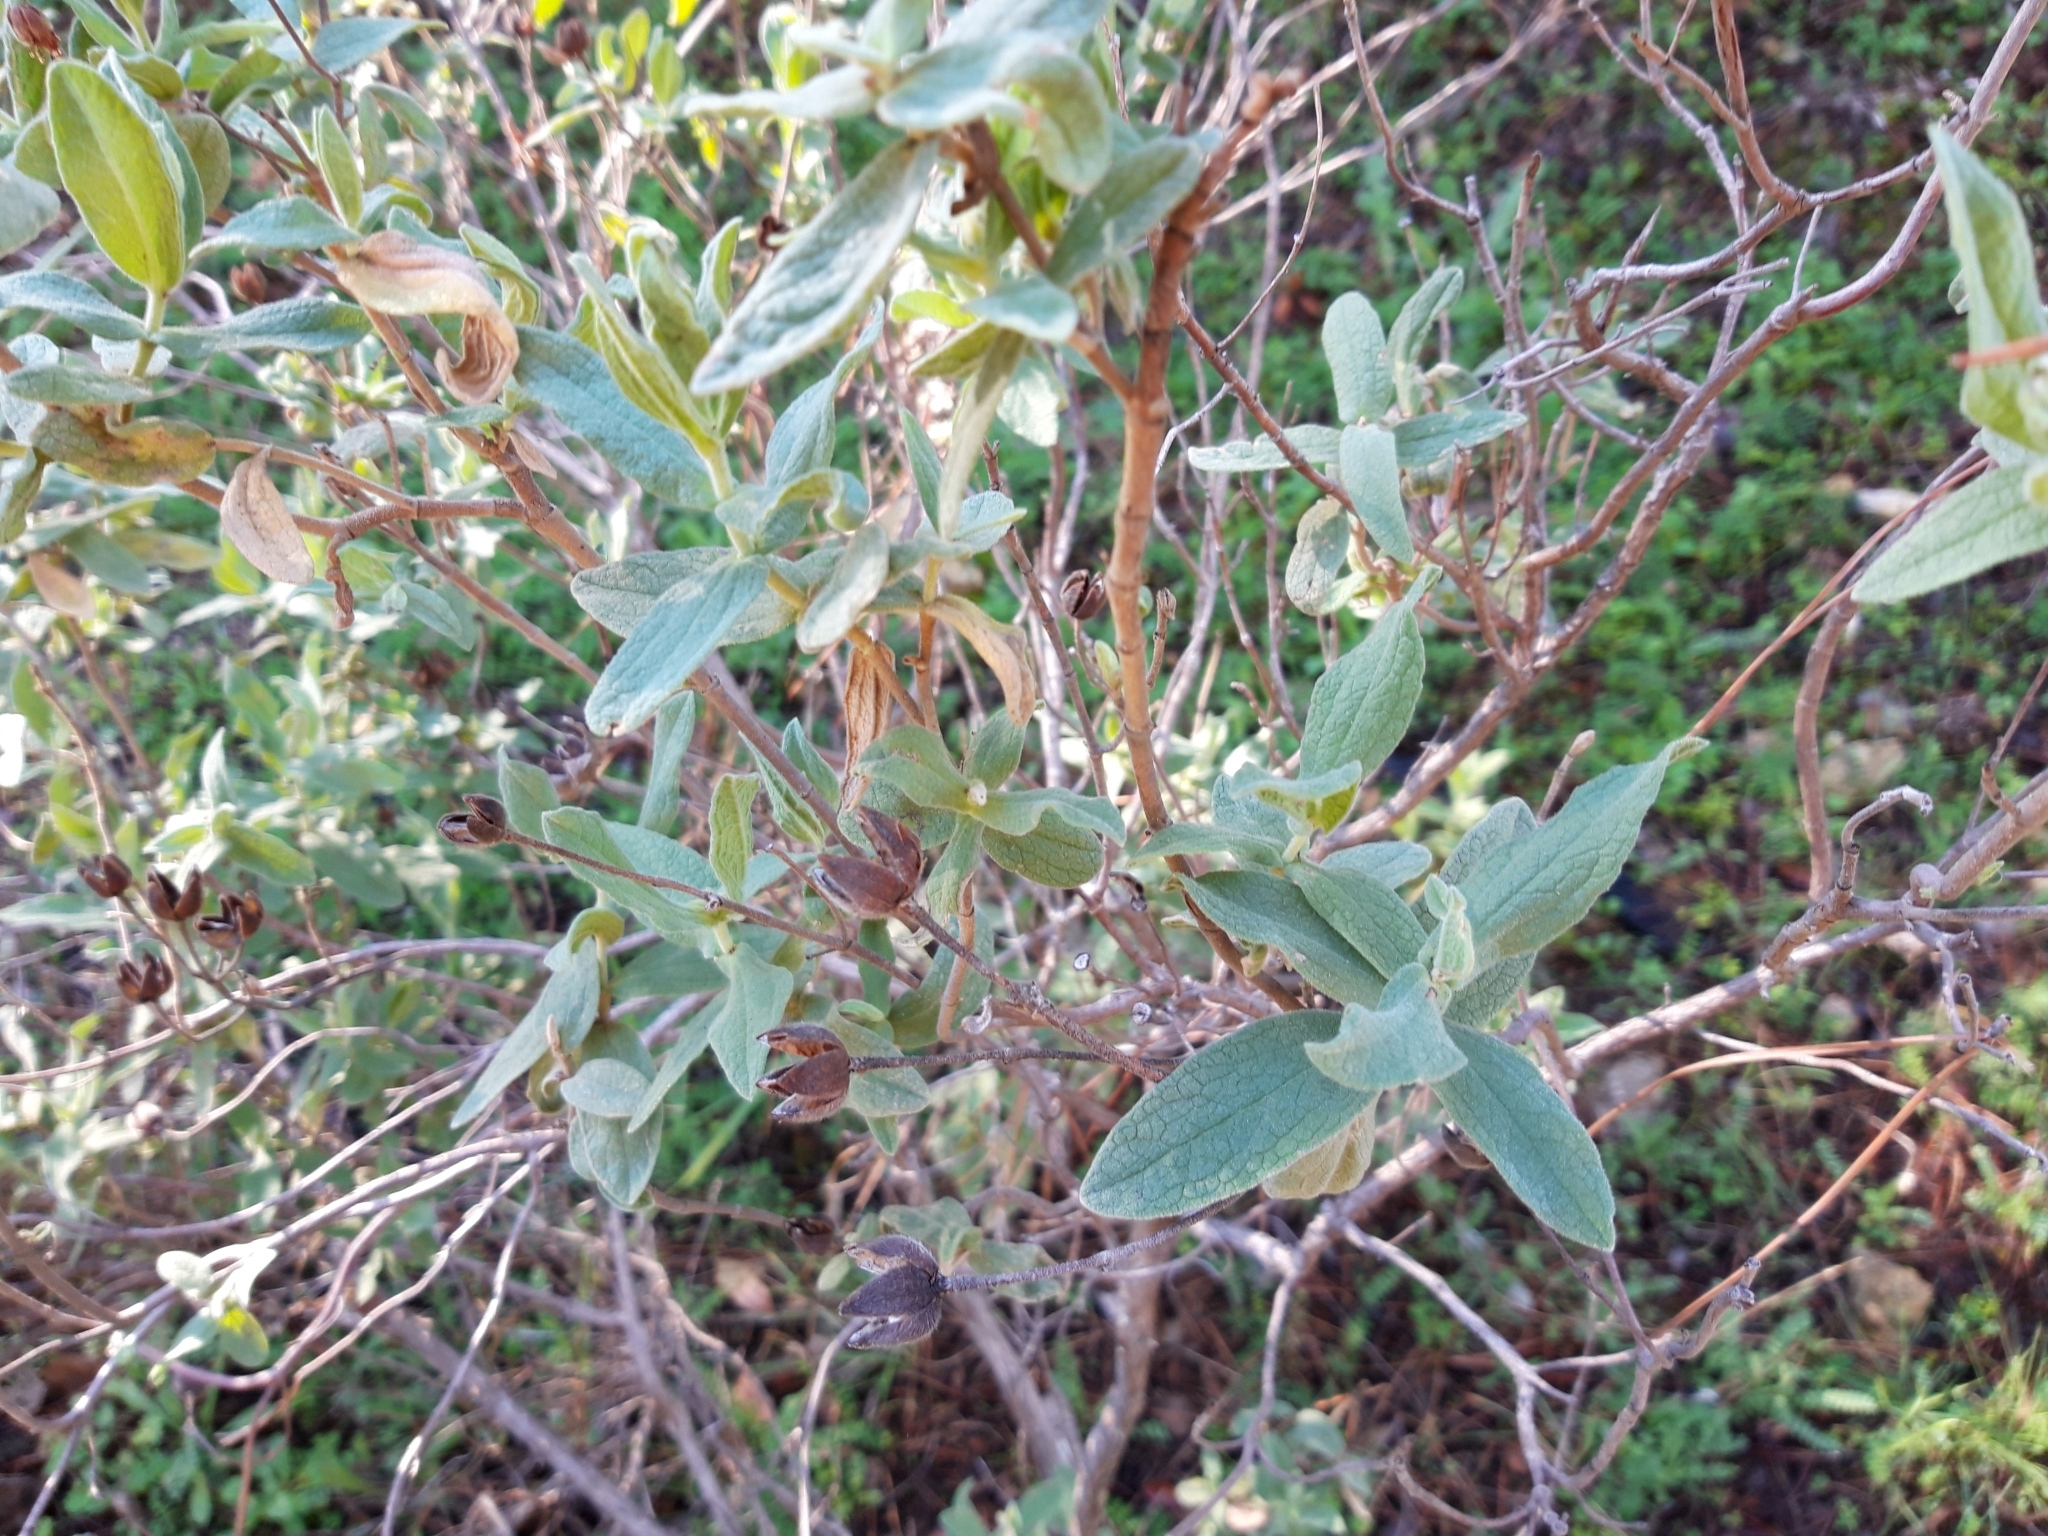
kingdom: Plantae
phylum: Tracheophyta
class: Magnoliopsida
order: Malvales
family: Cistaceae
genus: Cistus
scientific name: Cistus albidus
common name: White-leaf rock-rose
